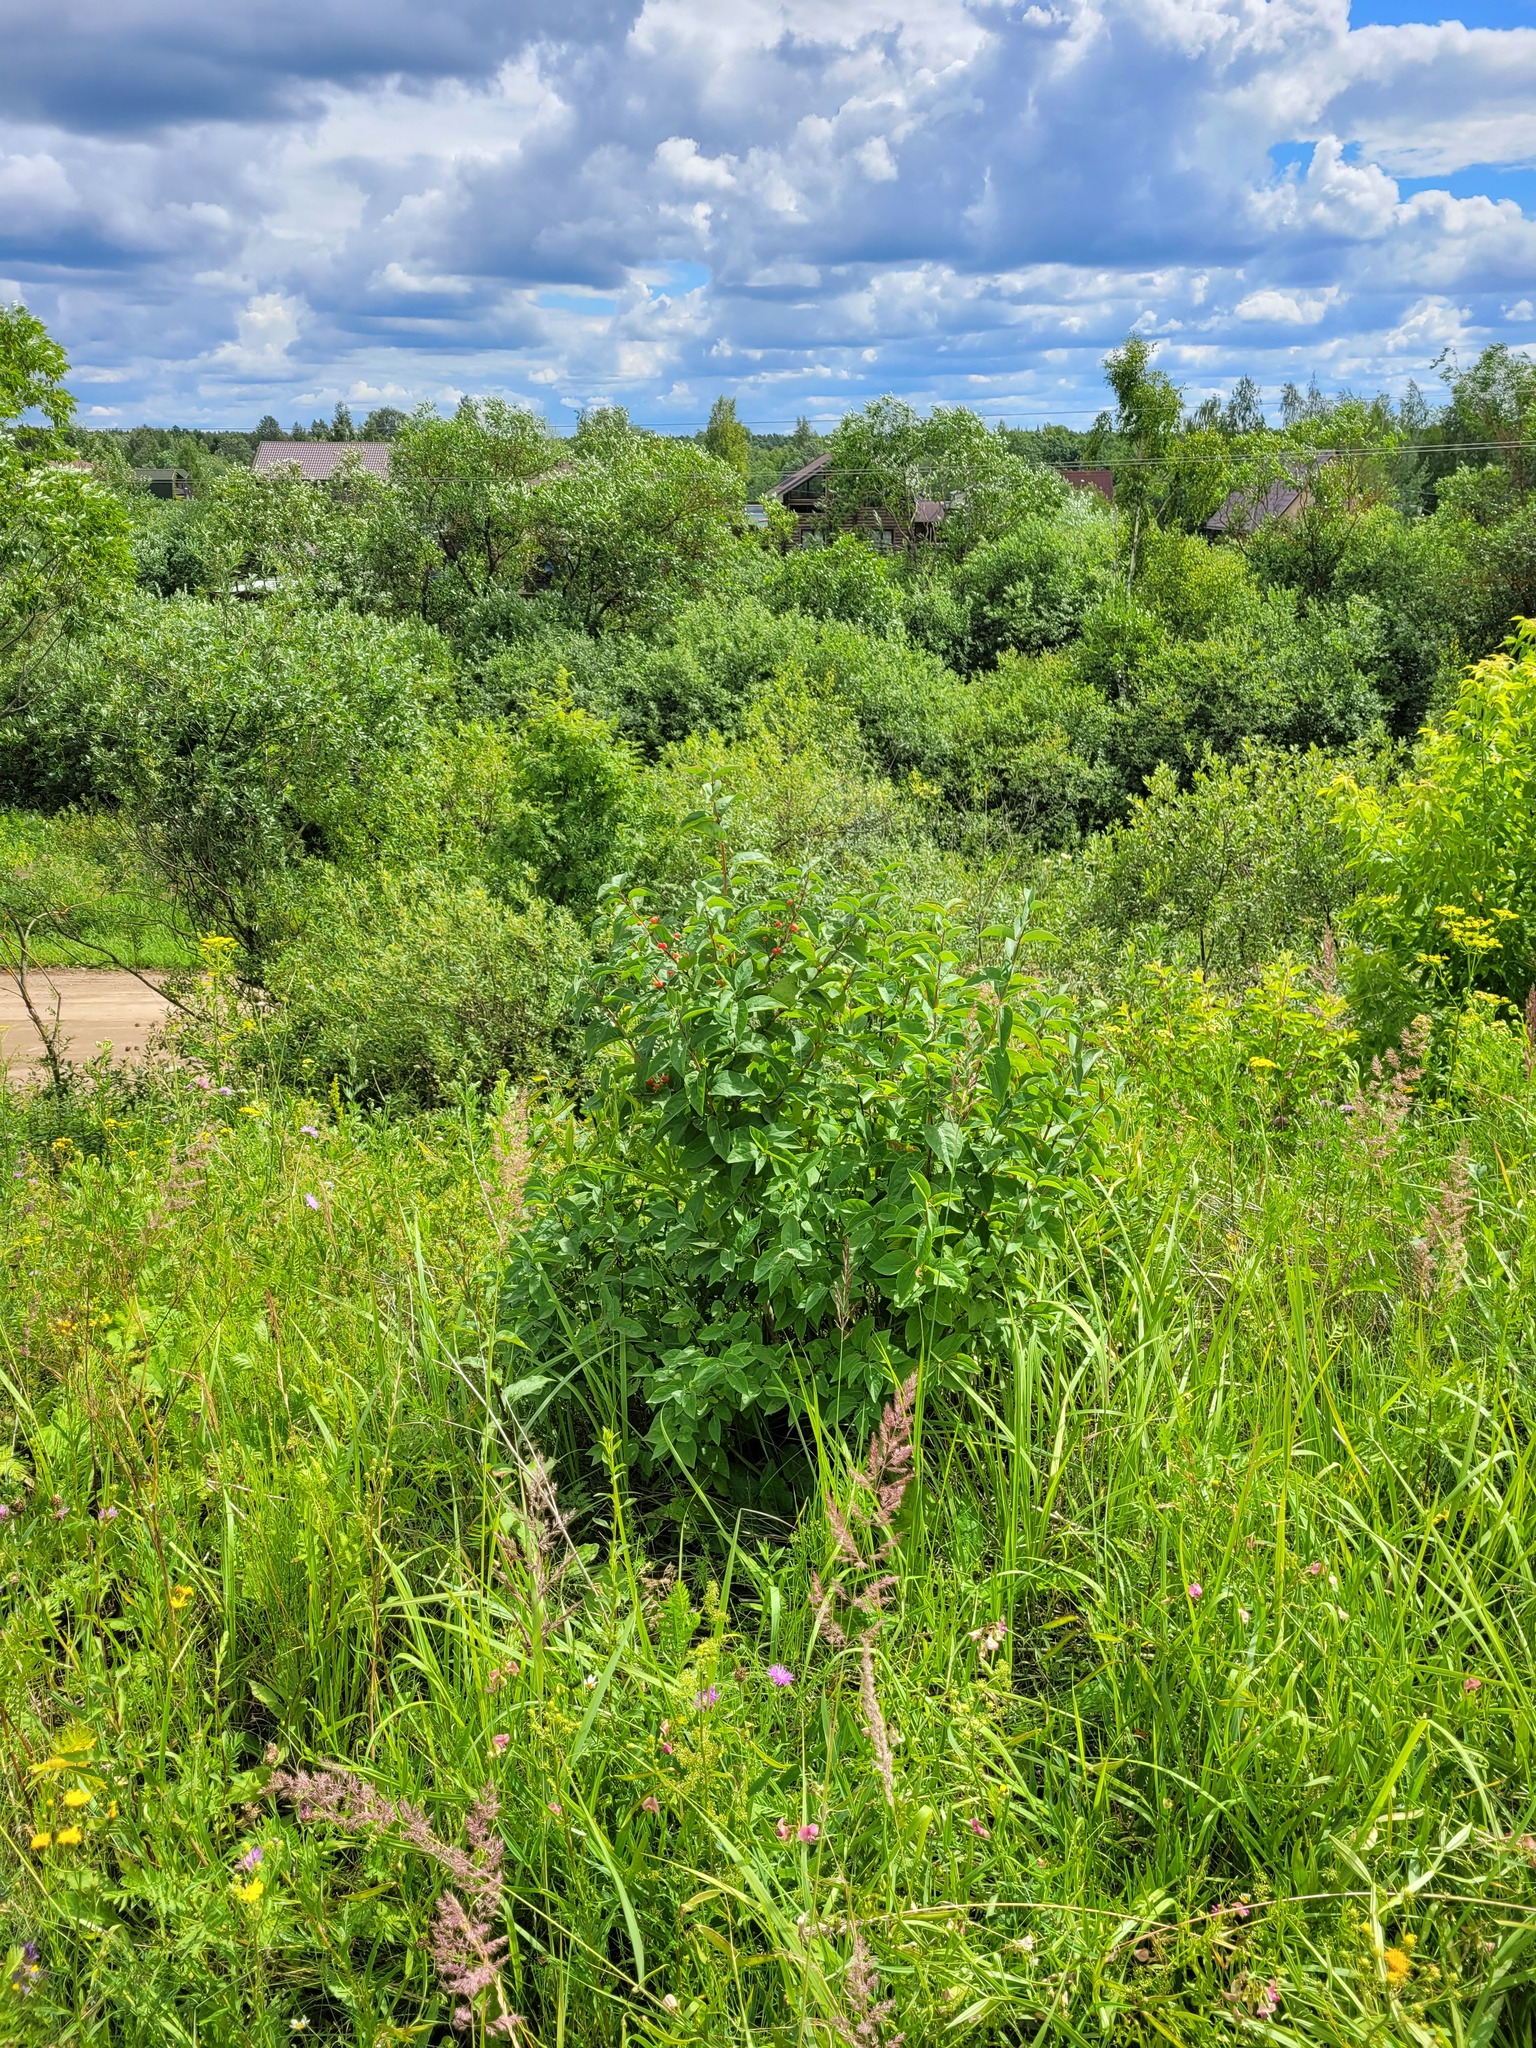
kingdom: Plantae
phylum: Tracheophyta
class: Magnoliopsida
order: Dipsacales
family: Caprifoliaceae
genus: Lonicera
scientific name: Lonicera tatarica
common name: Tatarian honeysuckle
